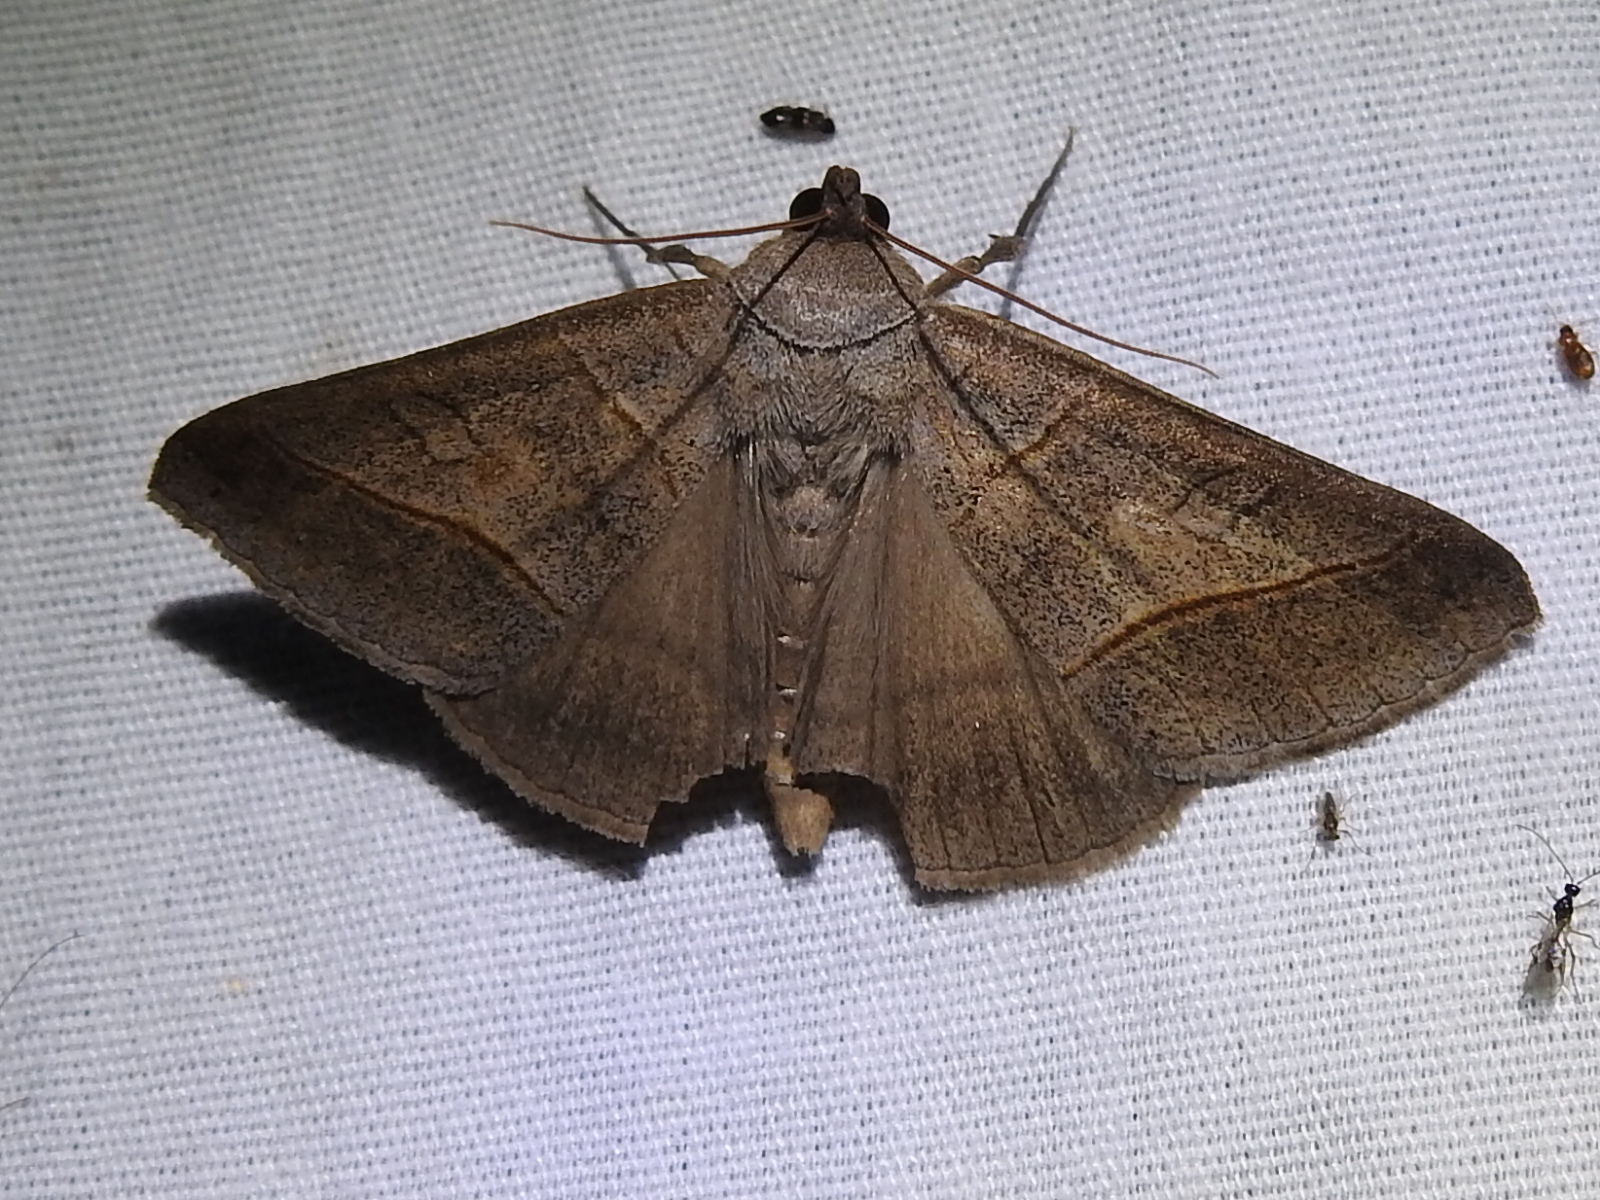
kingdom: Animalia
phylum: Arthropoda
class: Insecta
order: Lepidoptera
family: Erebidae
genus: Mocis
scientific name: Mocis texana
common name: Texas mocis moth
